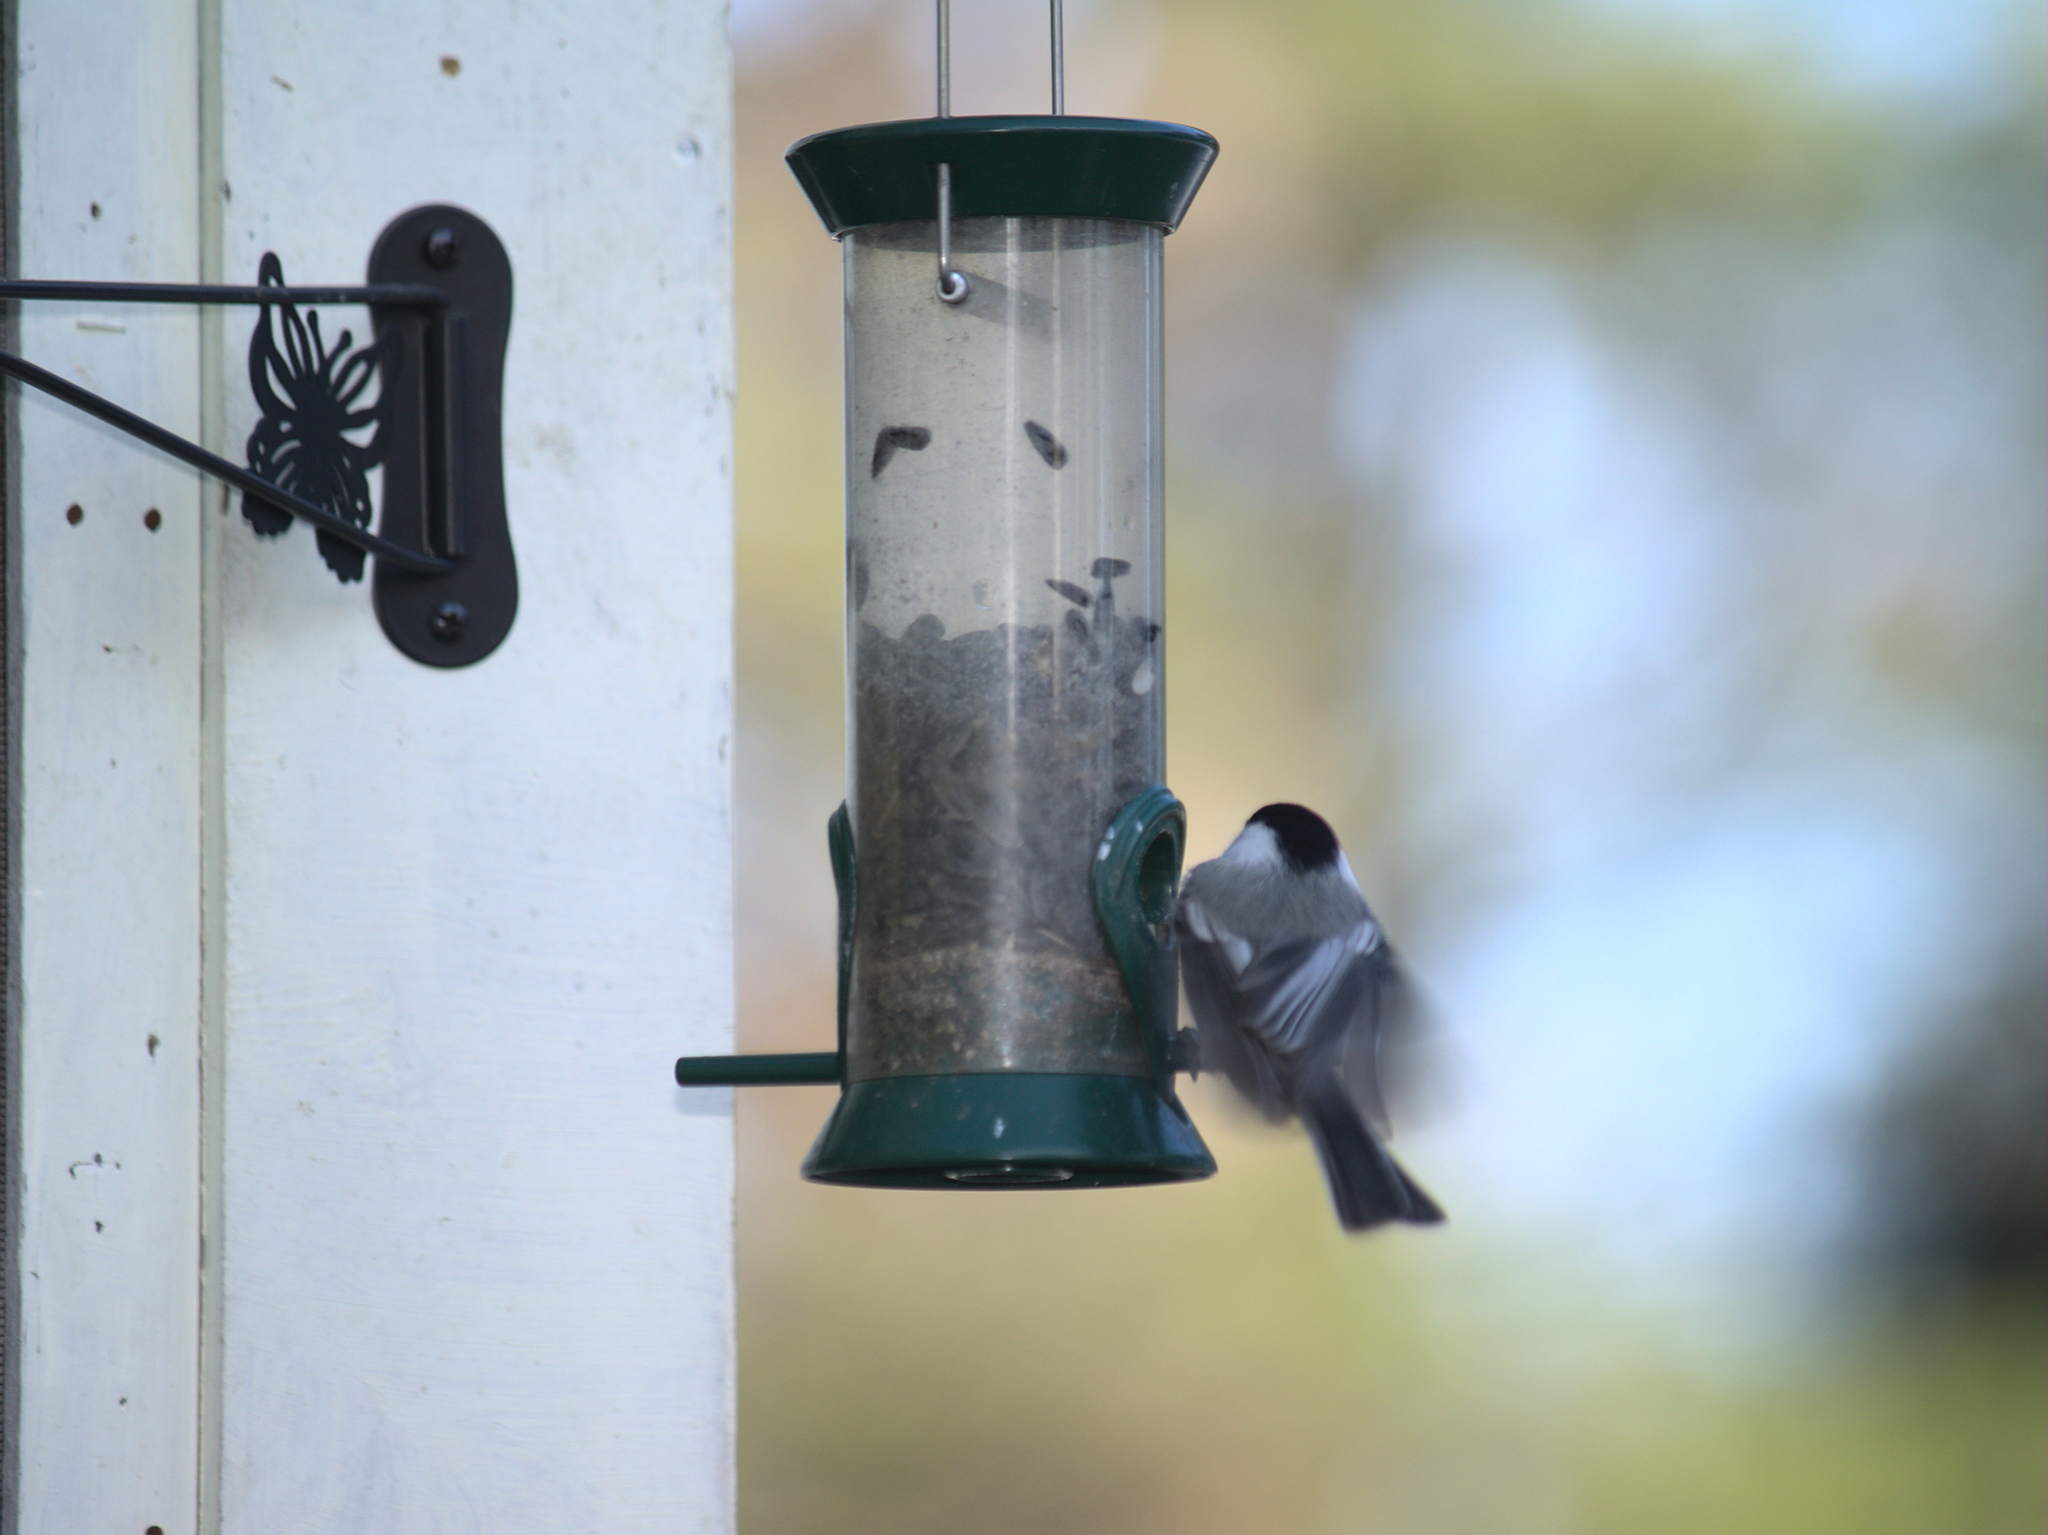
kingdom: Animalia
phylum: Chordata
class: Aves
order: Passeriformes
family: Paridae
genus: Poecile
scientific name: Poecile atricapillus
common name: Black-capped chickadee
